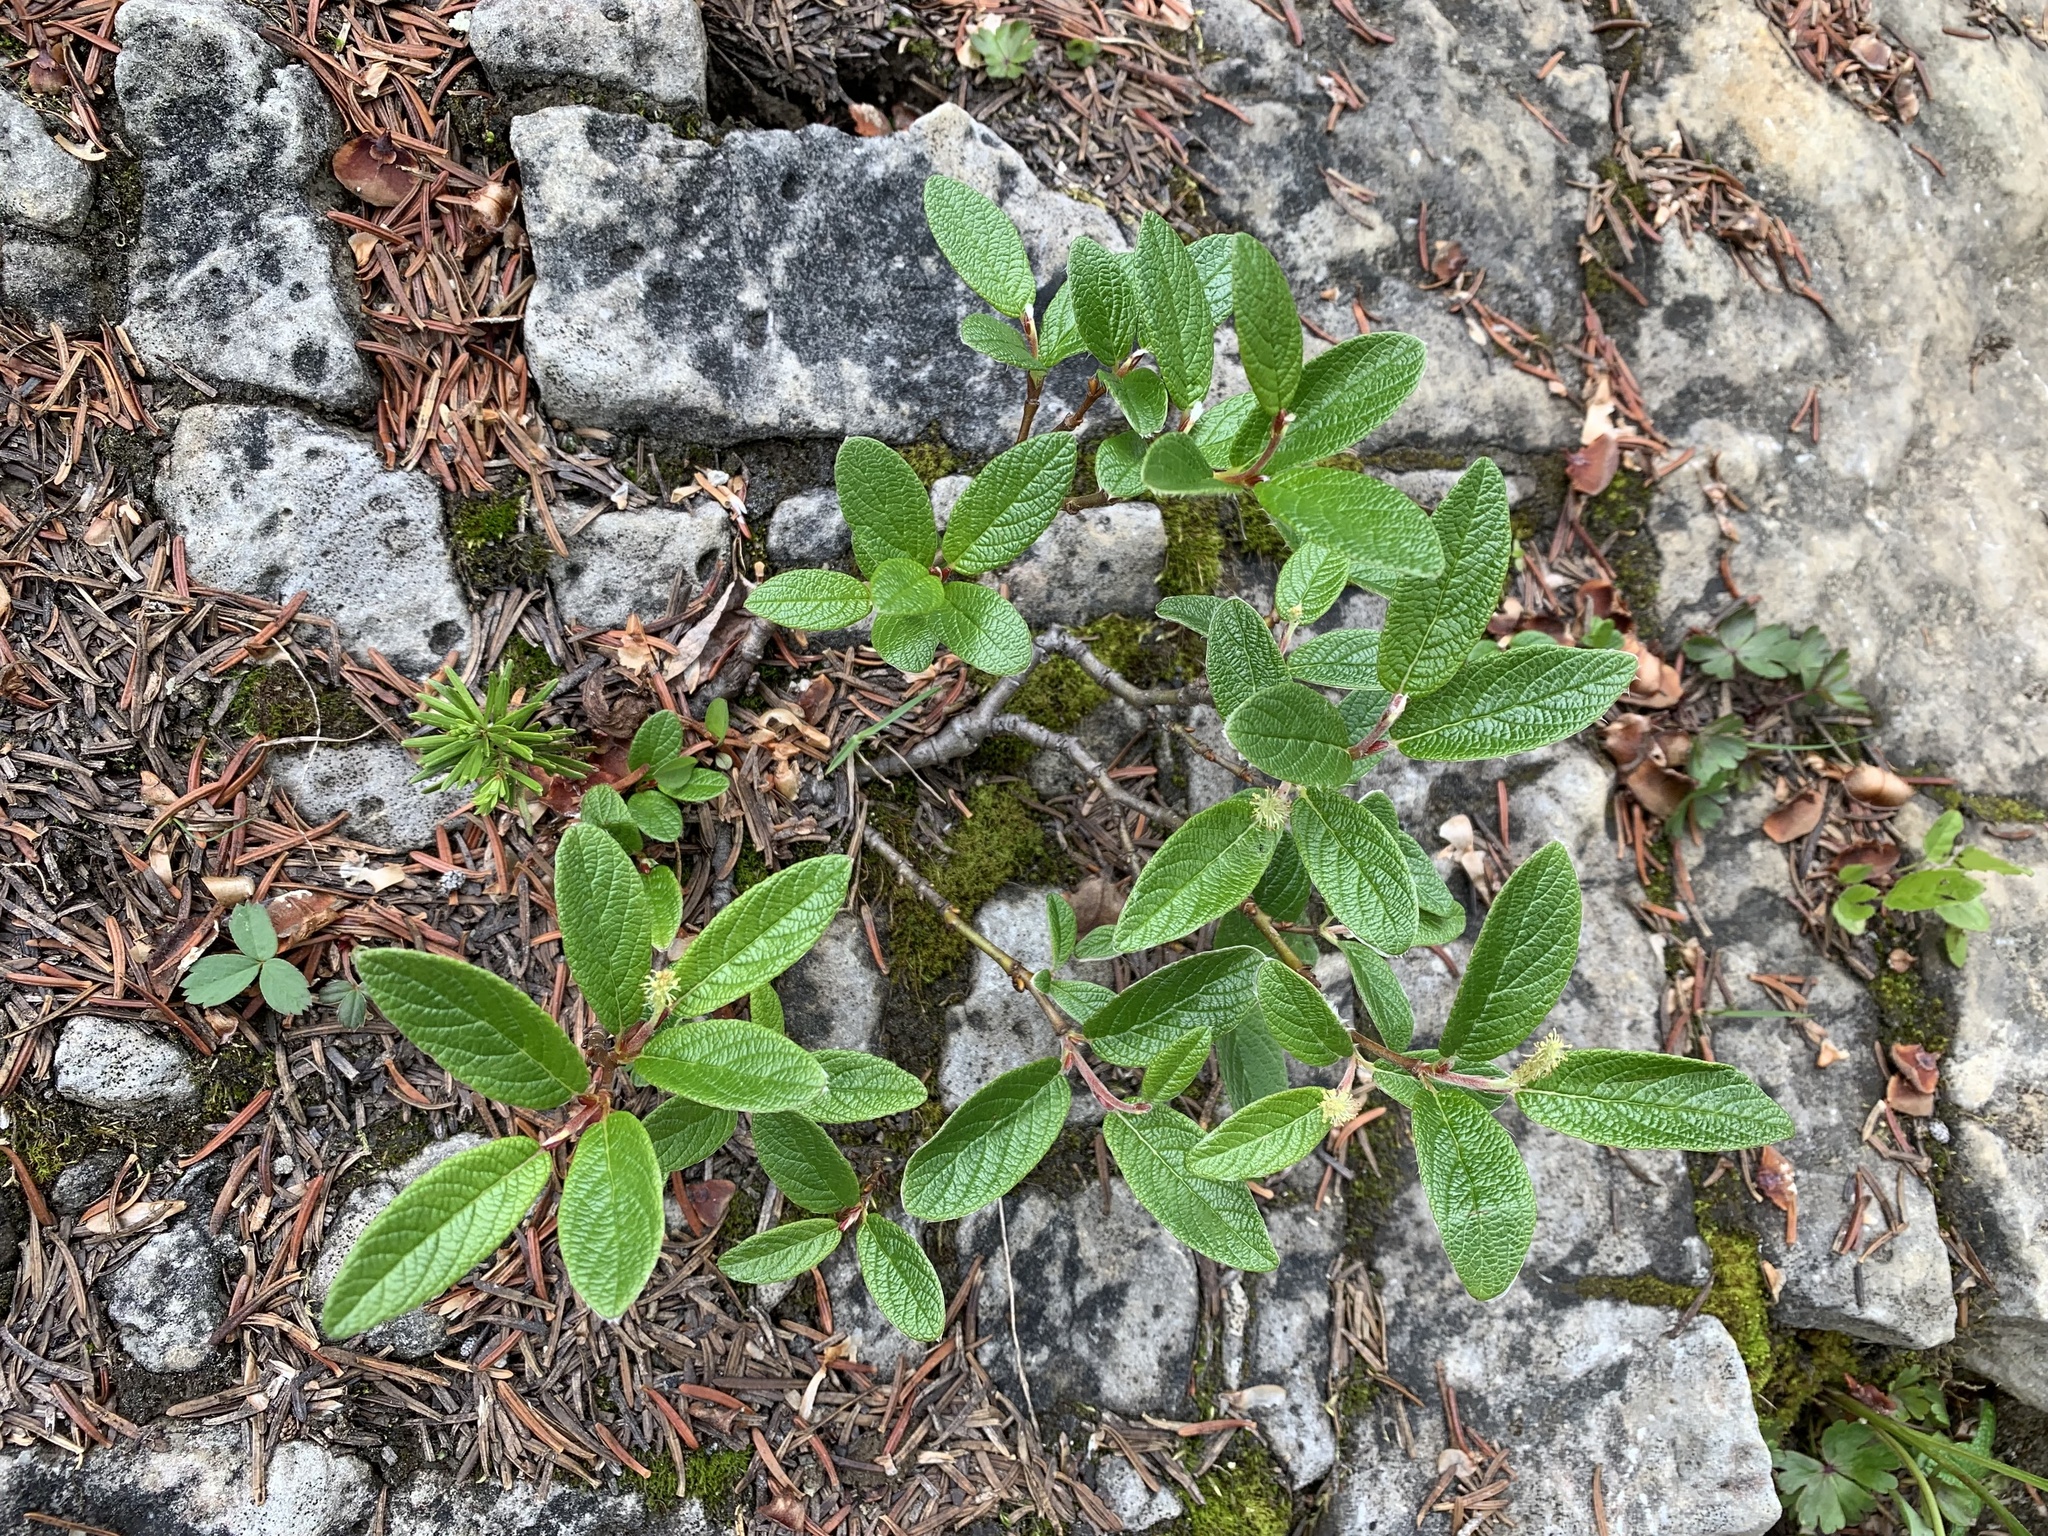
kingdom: Plantae
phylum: Tracheophyta
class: Magnoliopsida
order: Malpighiales
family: Salicaceae
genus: Salix
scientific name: Salix vestita
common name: Hairy willow
